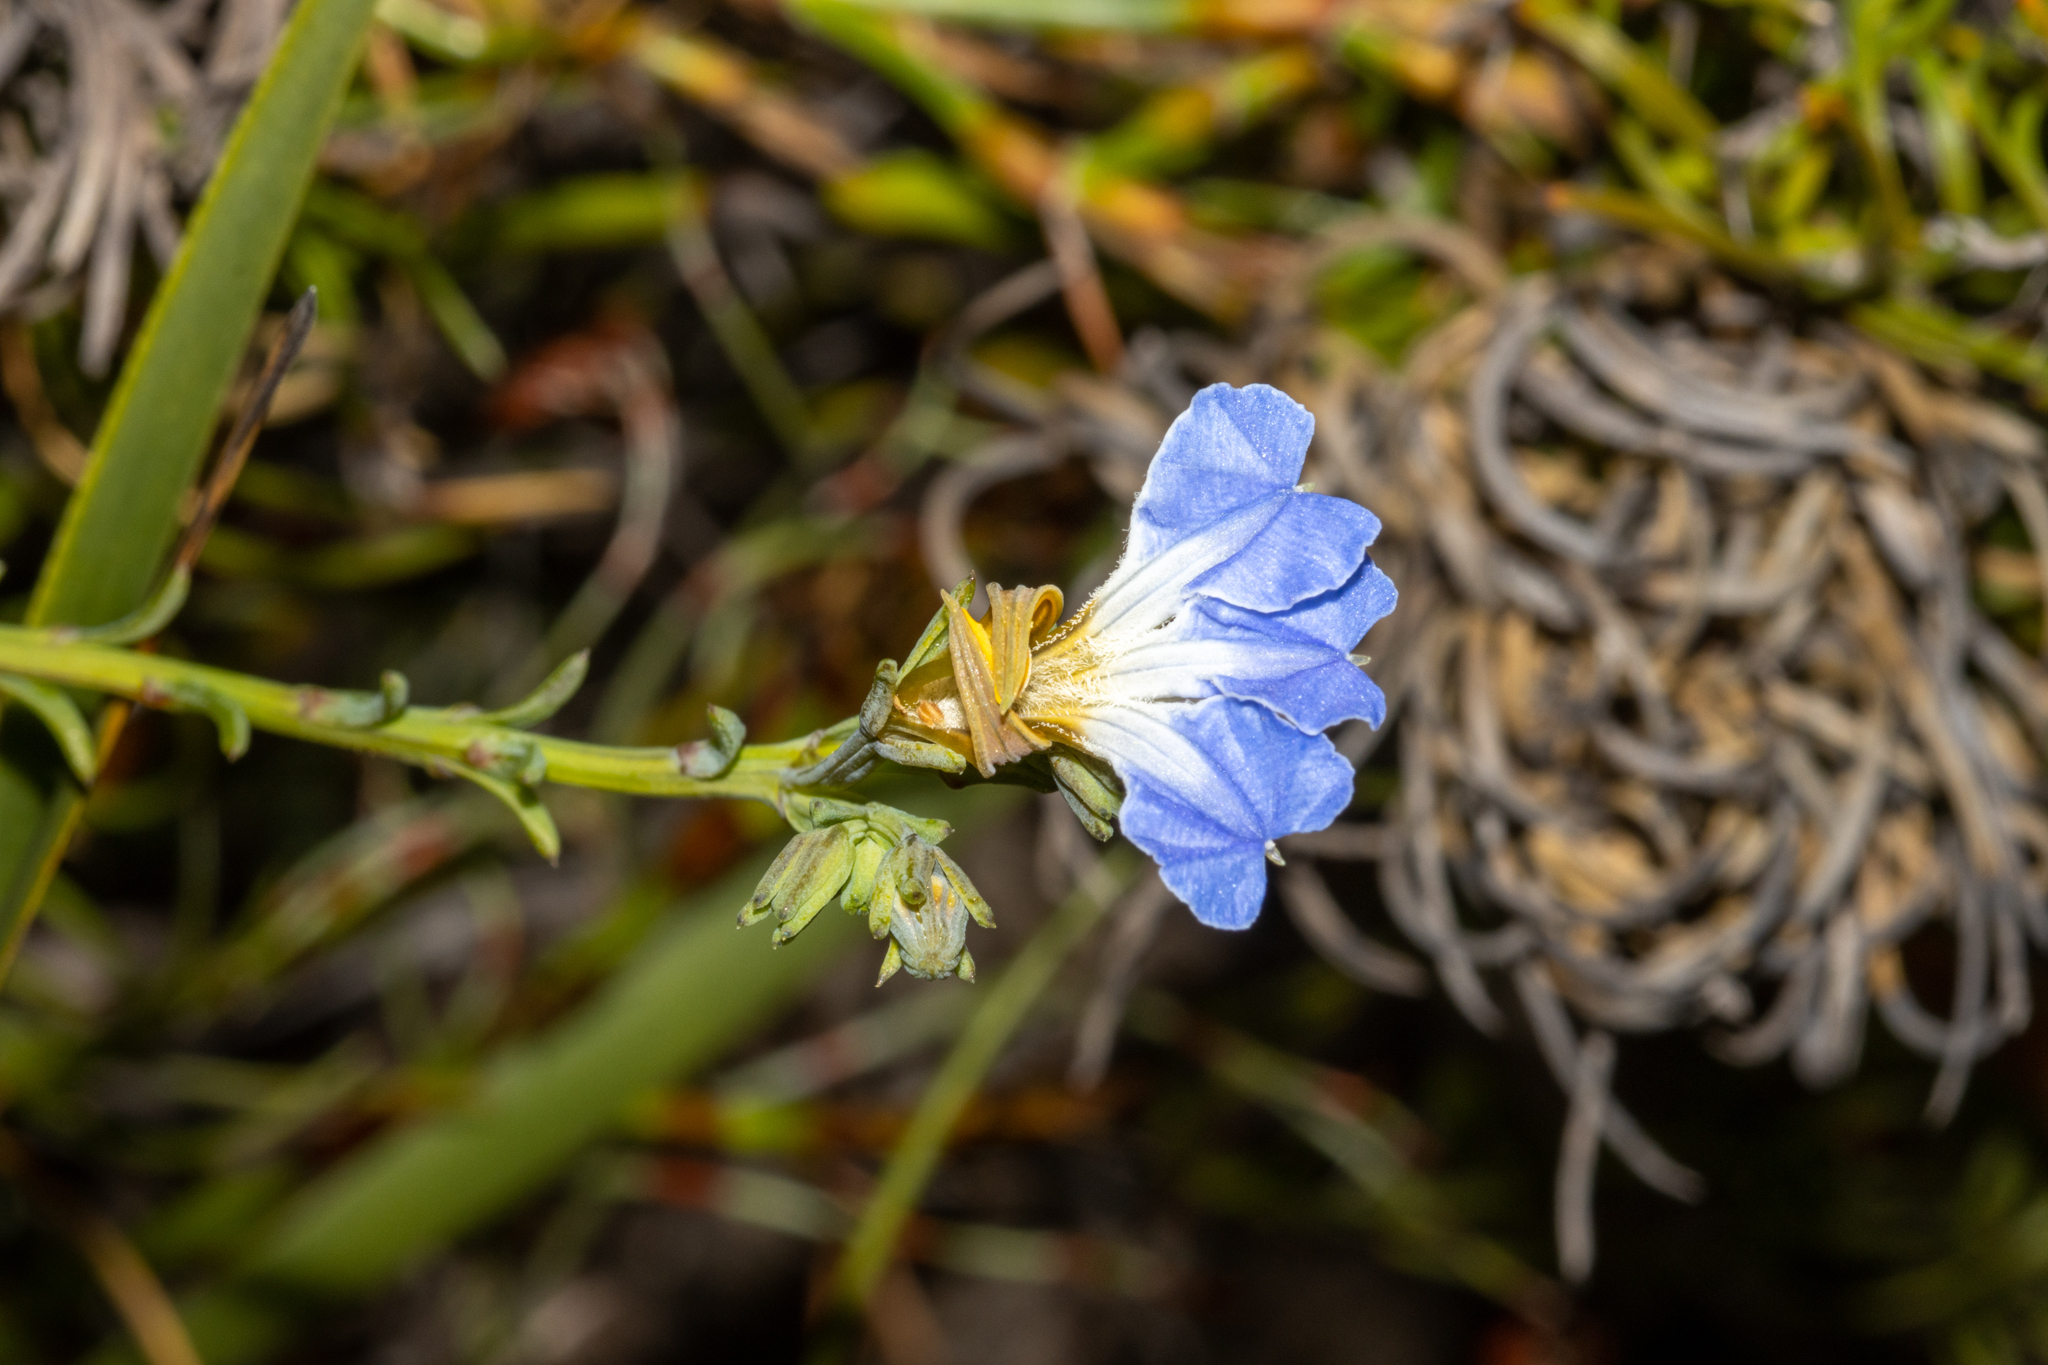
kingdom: Plantae
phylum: Tracheophyta
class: Magnoliopsida
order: Asterales
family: Goodeniaceae
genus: Lechenaultia
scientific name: Lechenaultia heteromera
